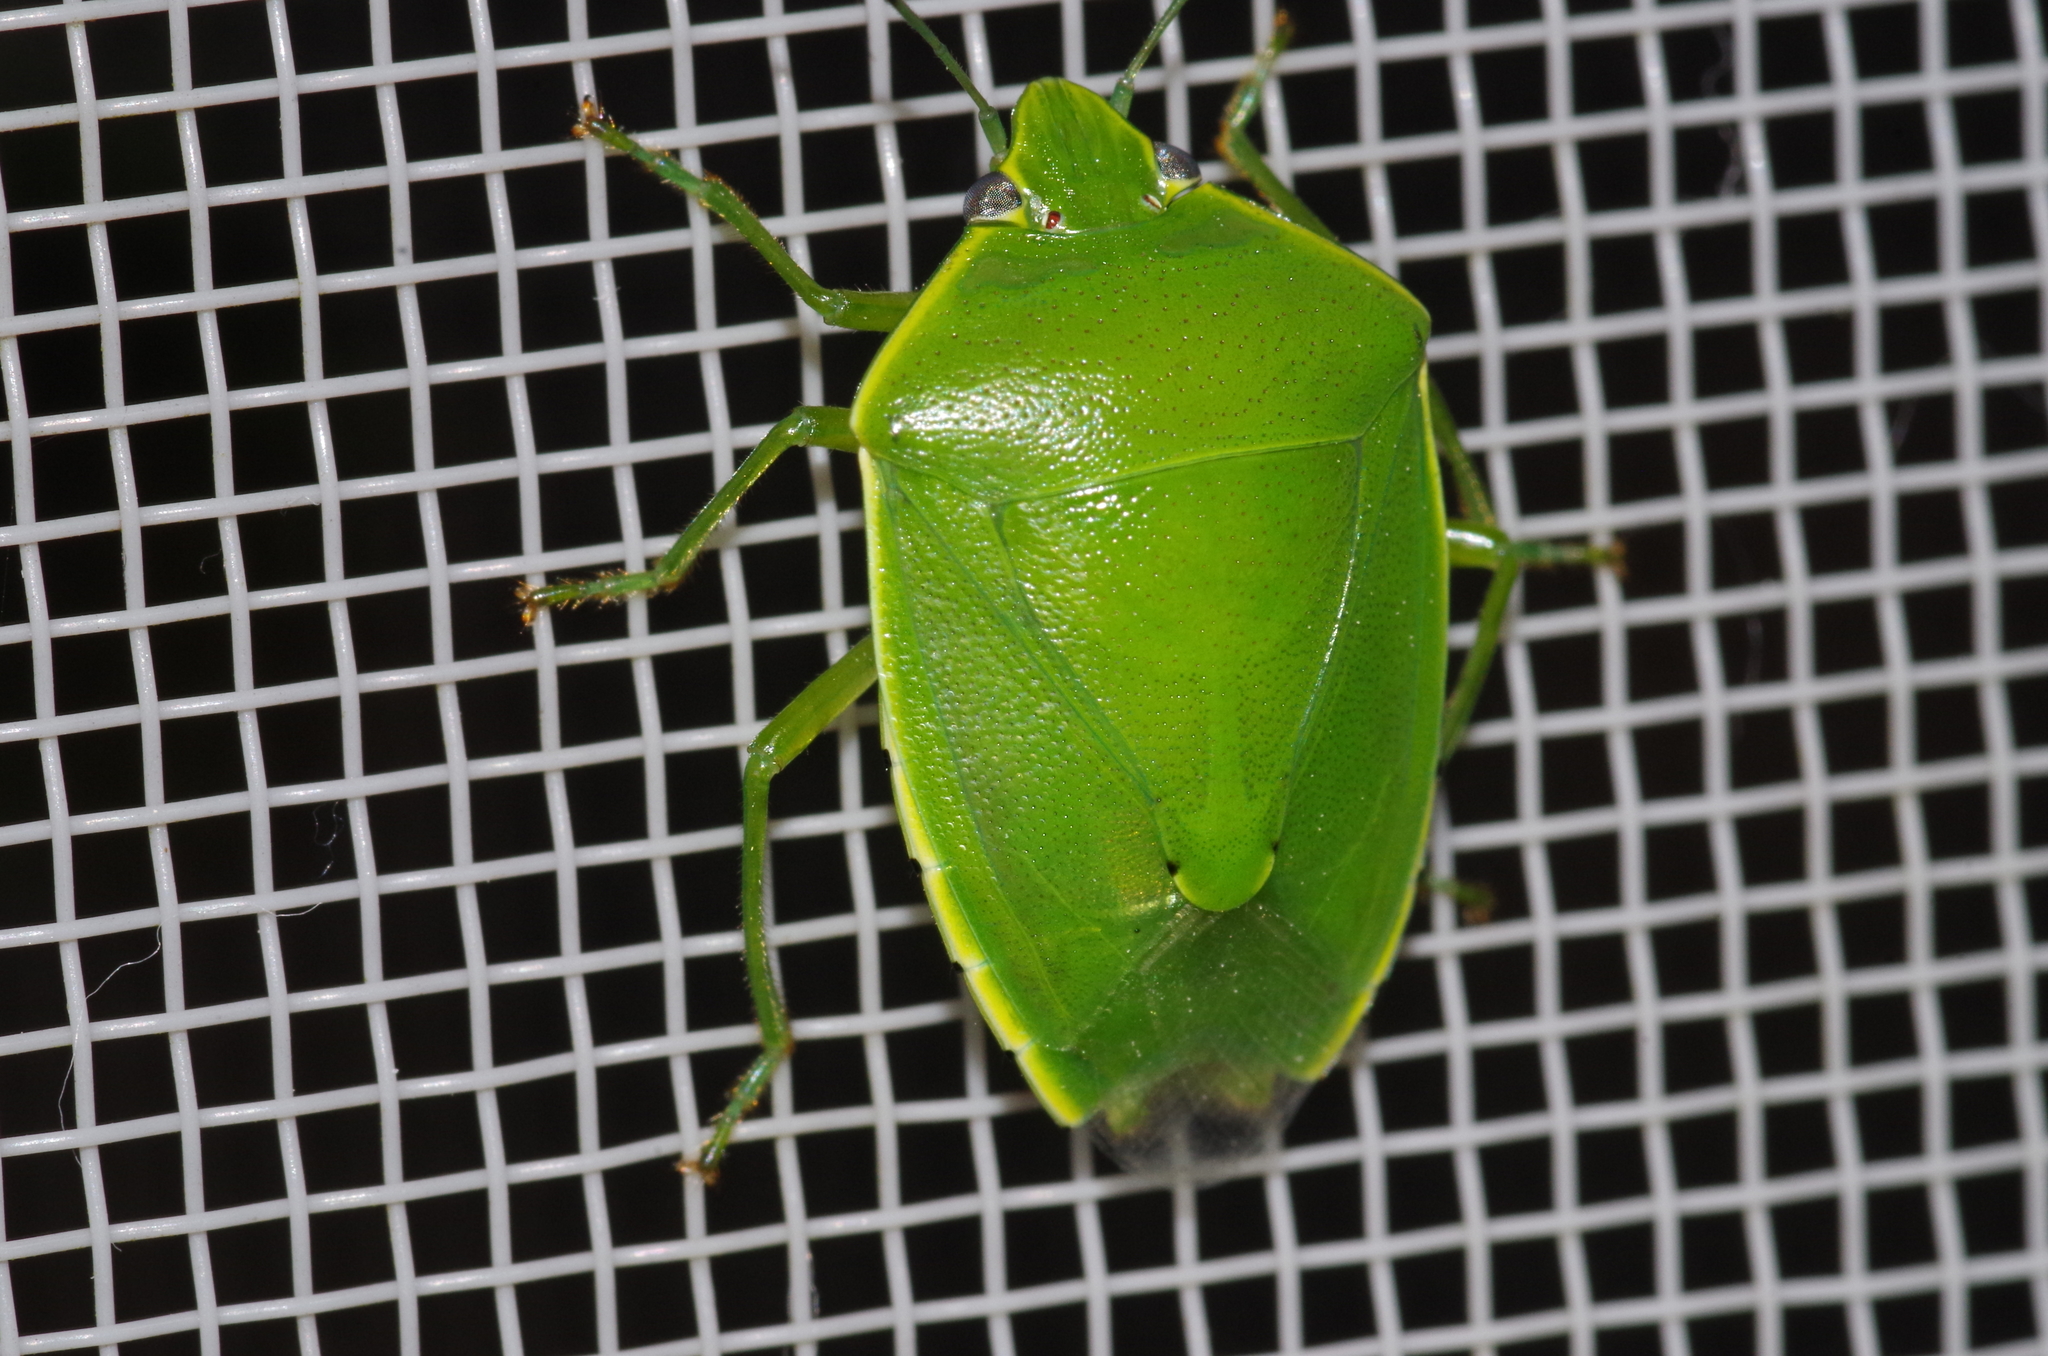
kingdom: Animalia
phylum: Arthropoda
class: Insecta
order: Hemiptera
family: Pentatomidae
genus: Glaucias
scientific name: Glaucias subpunctatus
